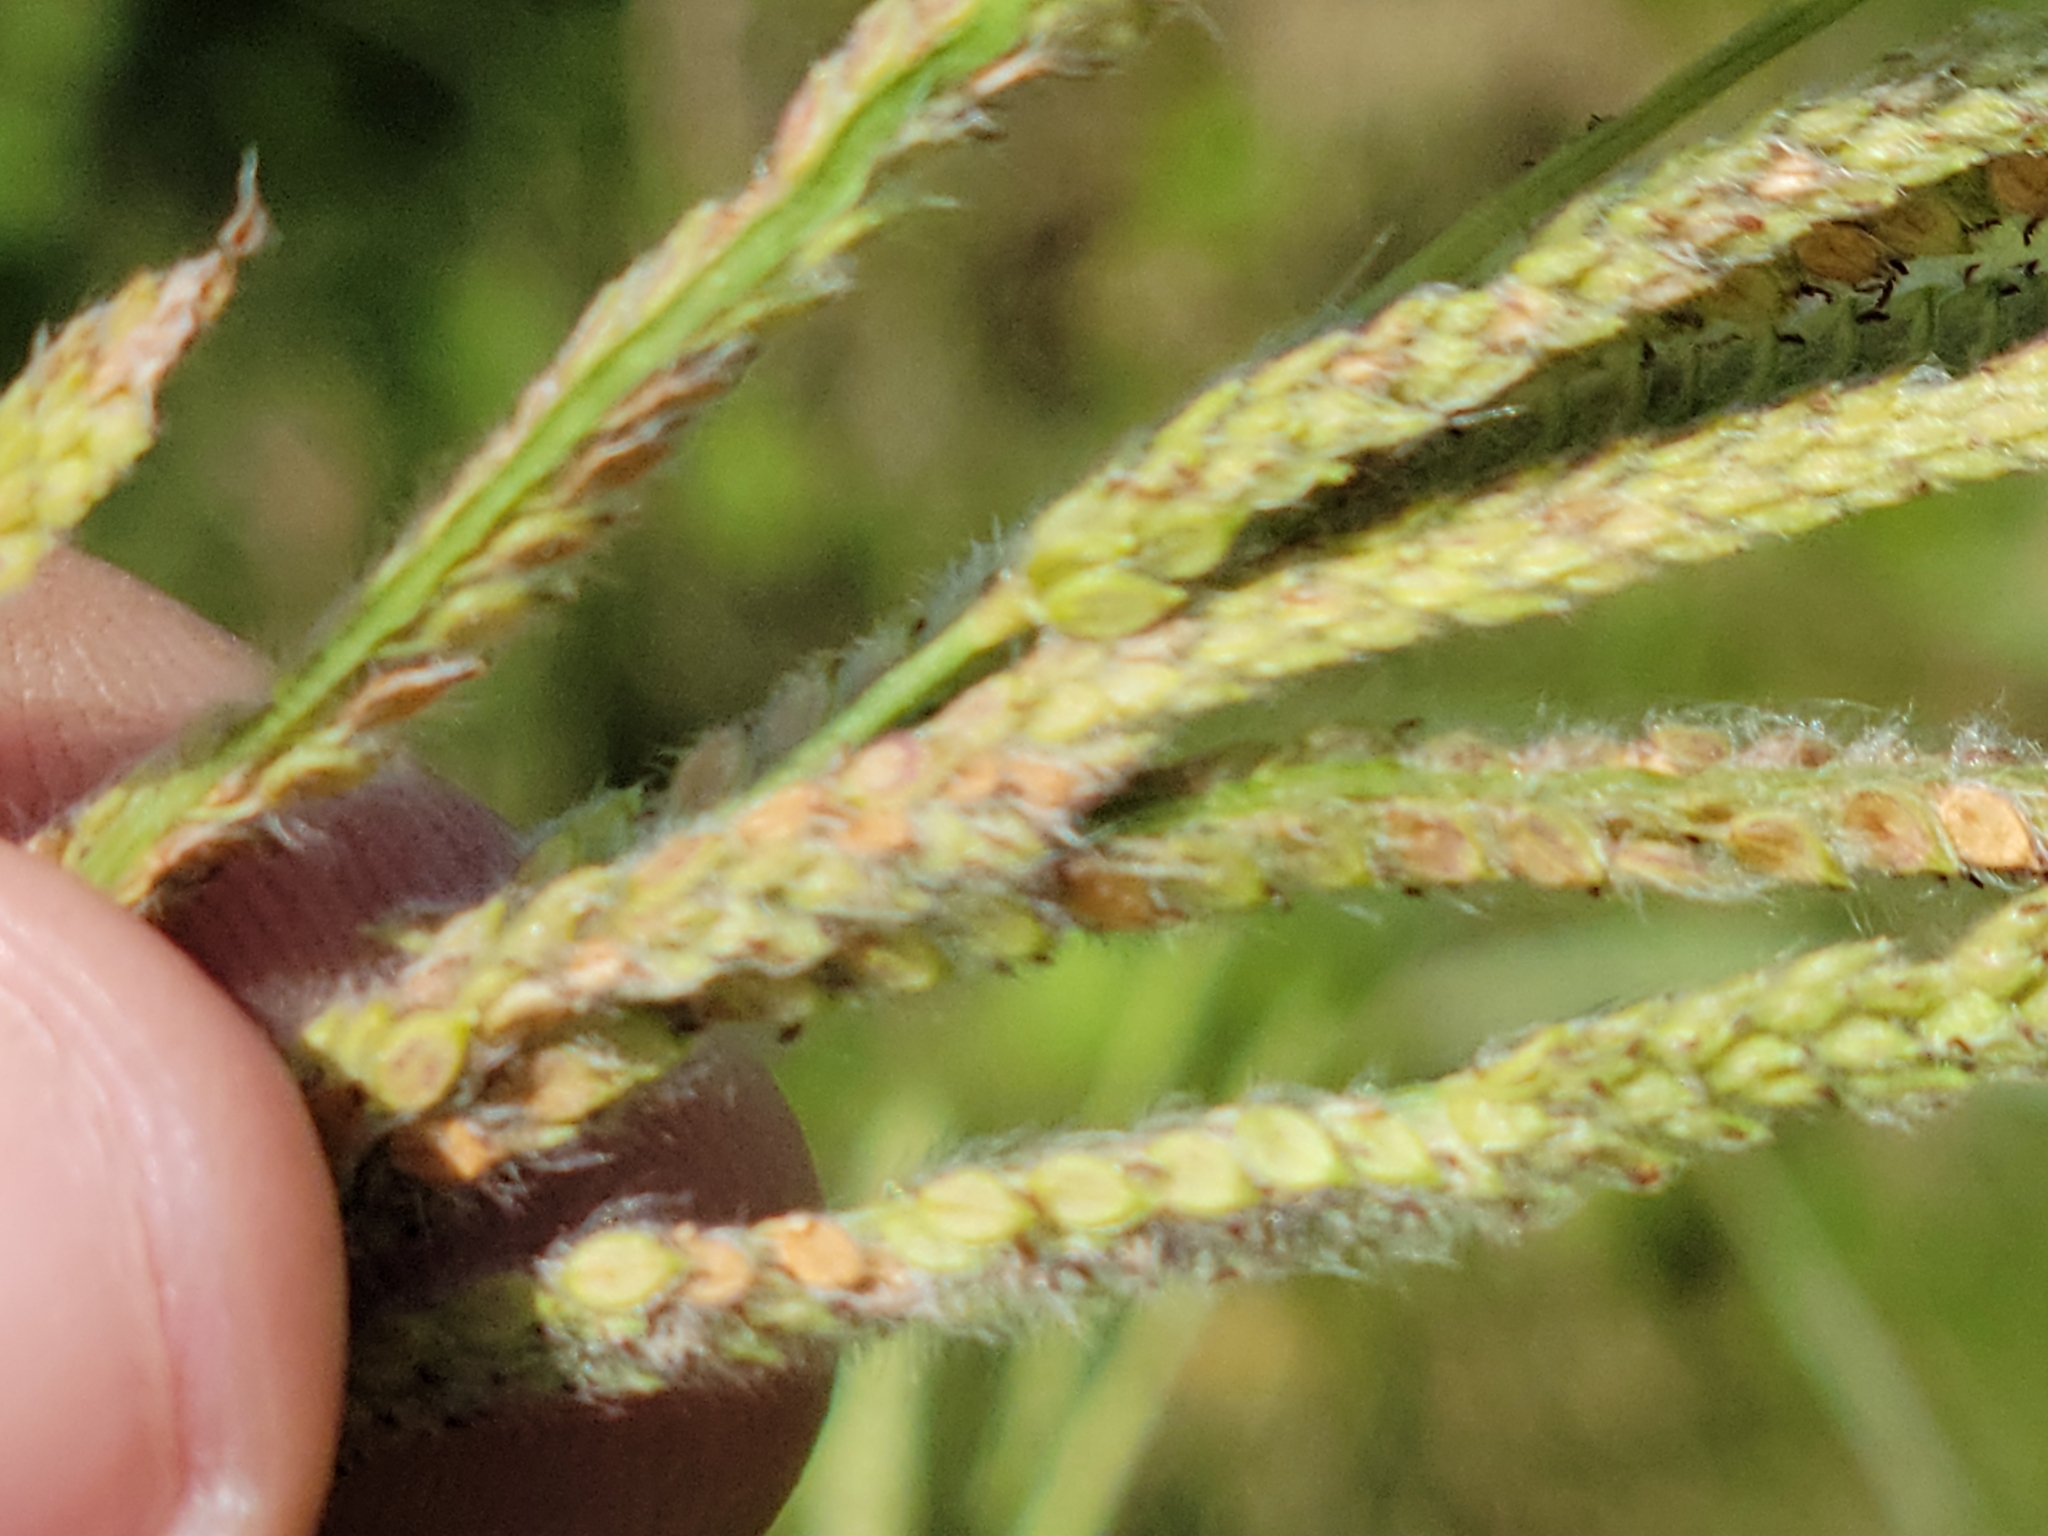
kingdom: Plantae
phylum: Tracheophyta
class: Liliopsida
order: Poales
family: Poaceae
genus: Paspalum
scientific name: Paspalum urvillei
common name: Vasey's grass
